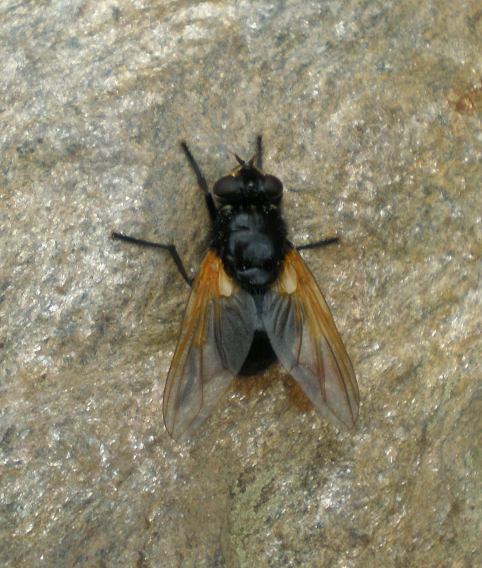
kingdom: Animalia
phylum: Arthropoda
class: Insecta
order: Diptera
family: Muscidae
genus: Mesembrina
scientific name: Mesembrina meridiana
